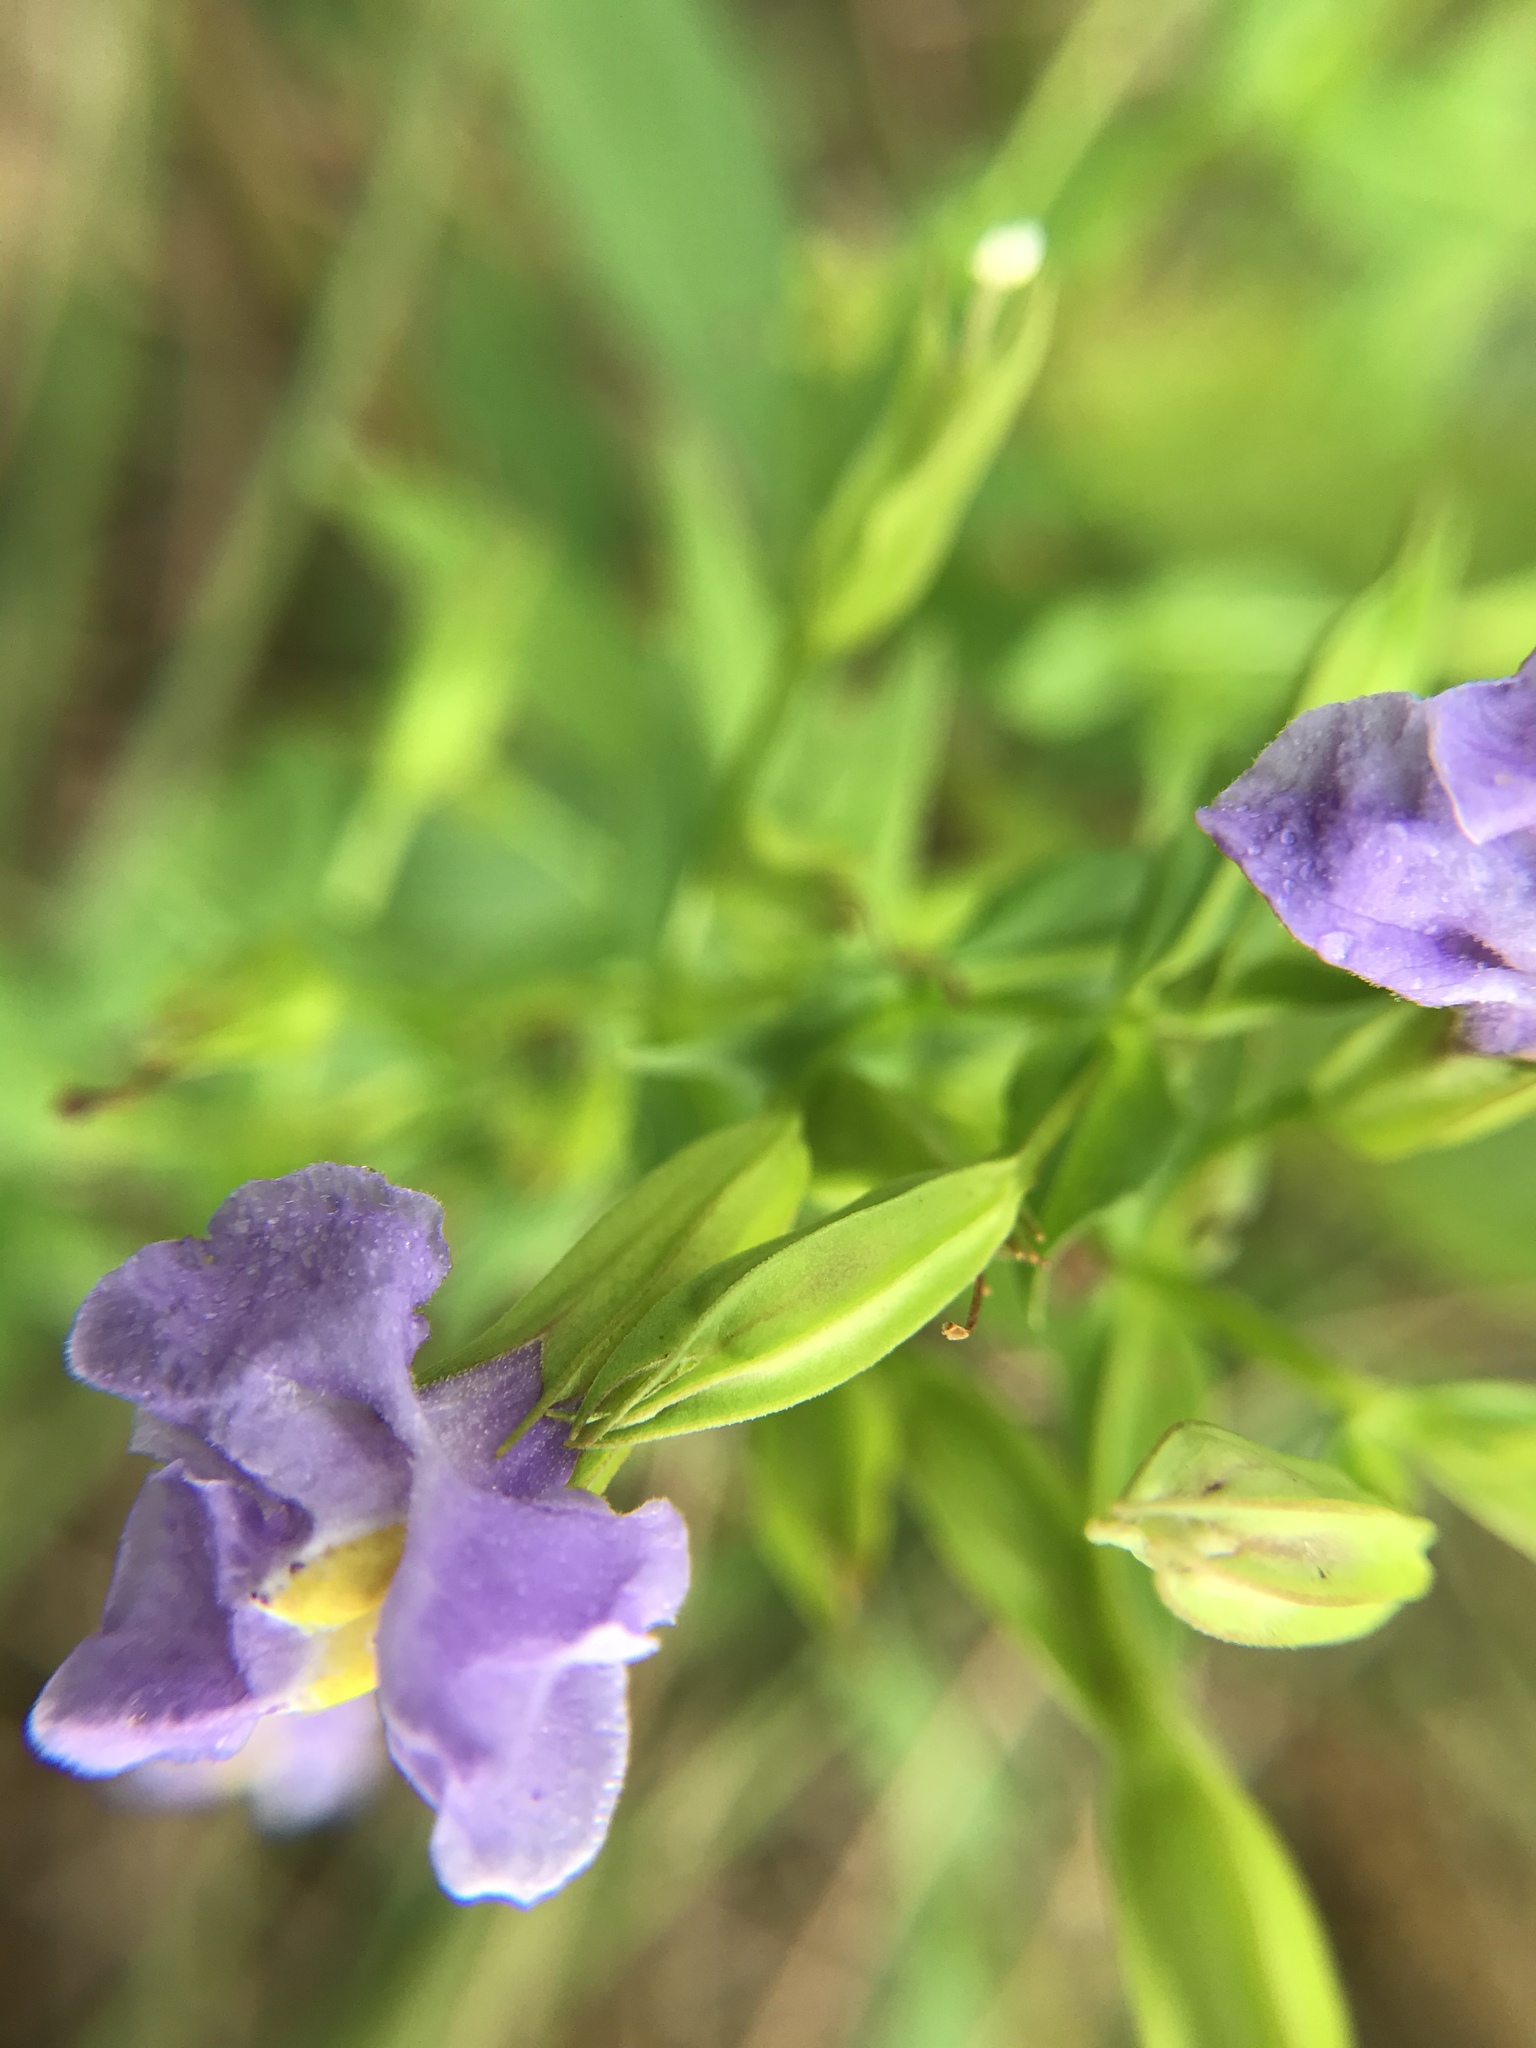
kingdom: Plantae
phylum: Tracheophyta
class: Magnoliopsida
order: Lamiales
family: Phrymaceae
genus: Mimulus
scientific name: Mimulus ringens
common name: Allegheny monkeyflower
